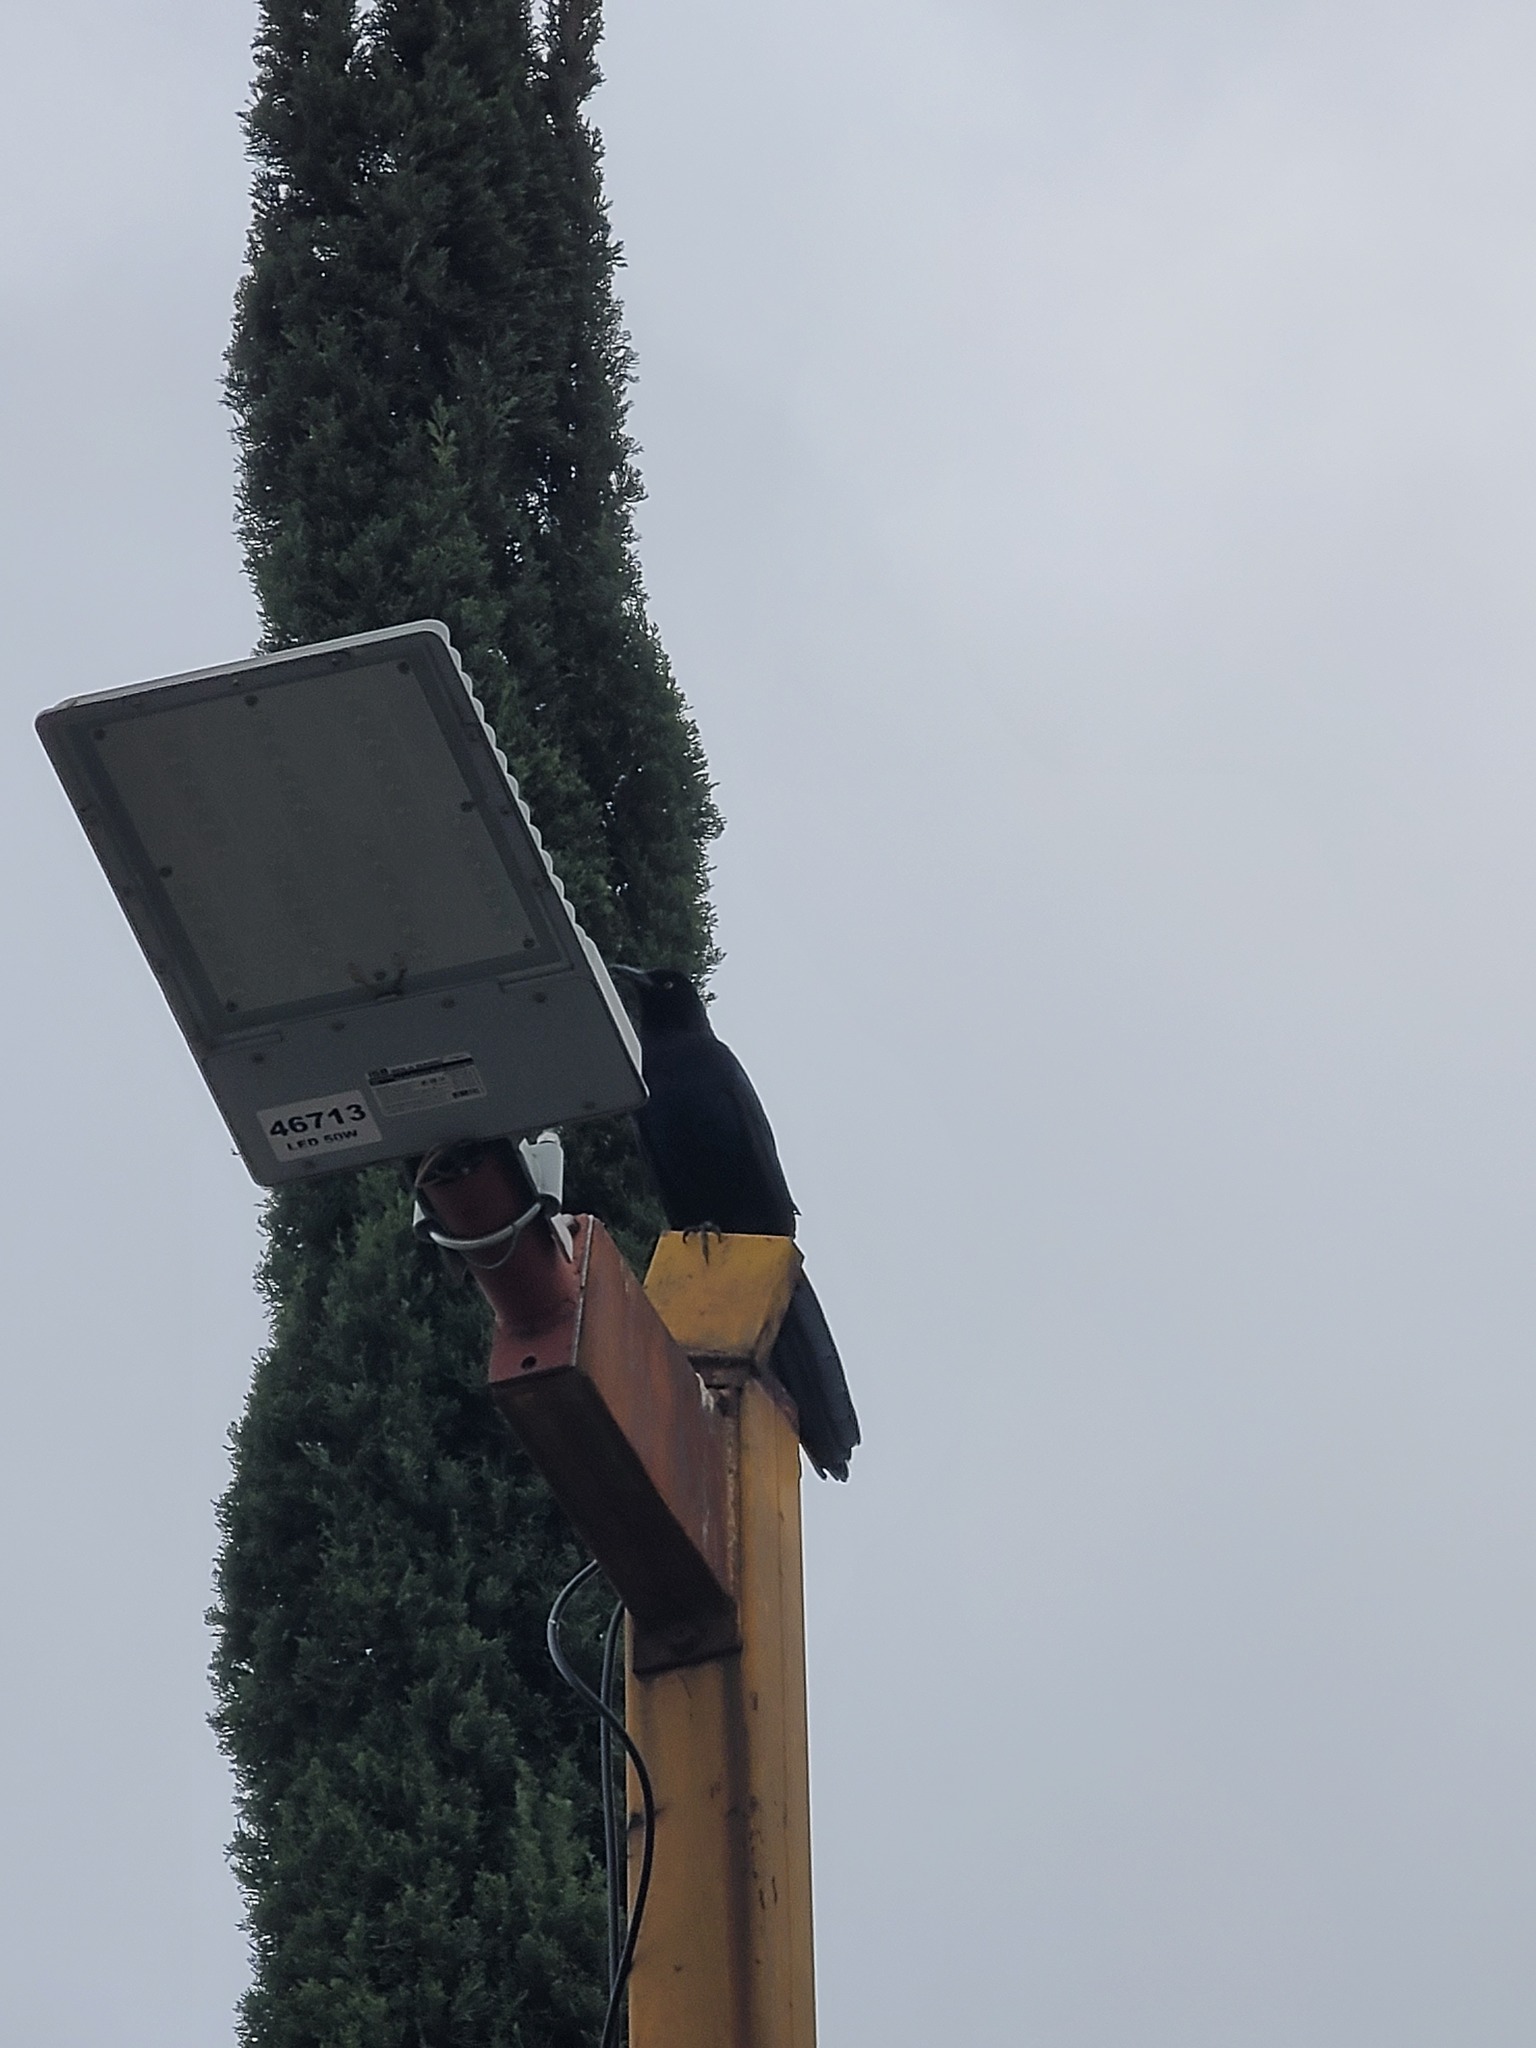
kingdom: Animalia
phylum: Chordata
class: Aves
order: Passeriformes
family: Icteridae
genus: Quiscalus
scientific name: Quiscalus mexicanus
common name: Great-tailed grackle
